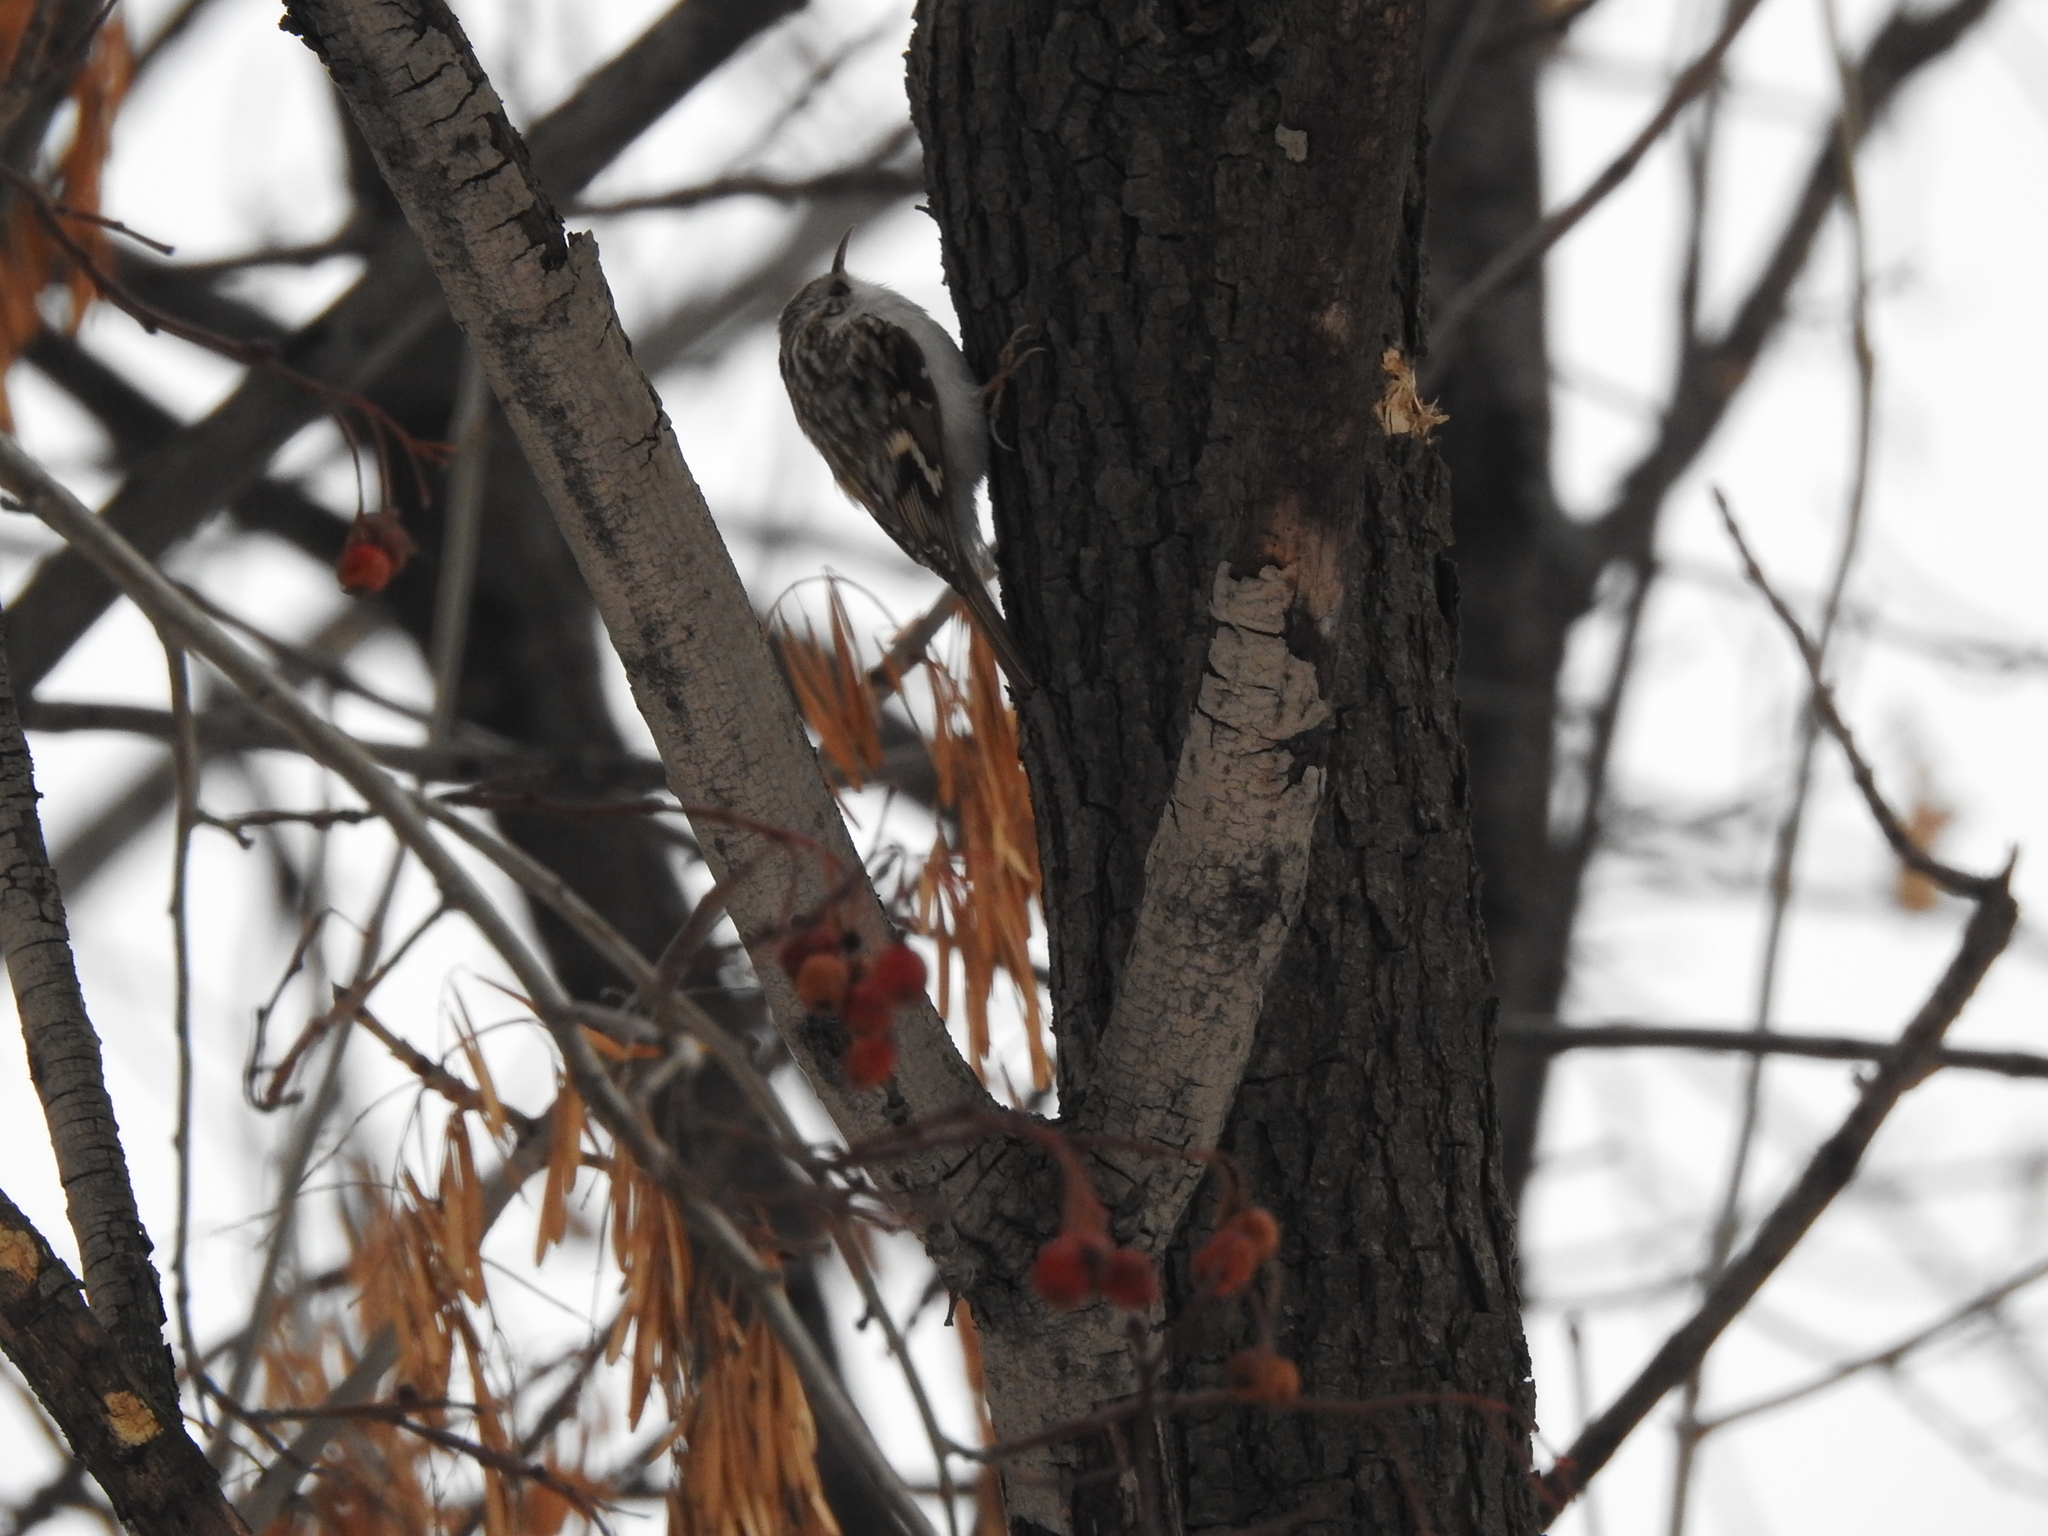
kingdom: Animalia
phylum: Chordata
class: Aves
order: Passeriformes
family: Certhiidae
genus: Certhia
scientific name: Certhia familiaris
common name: Eurasian treecreeper
